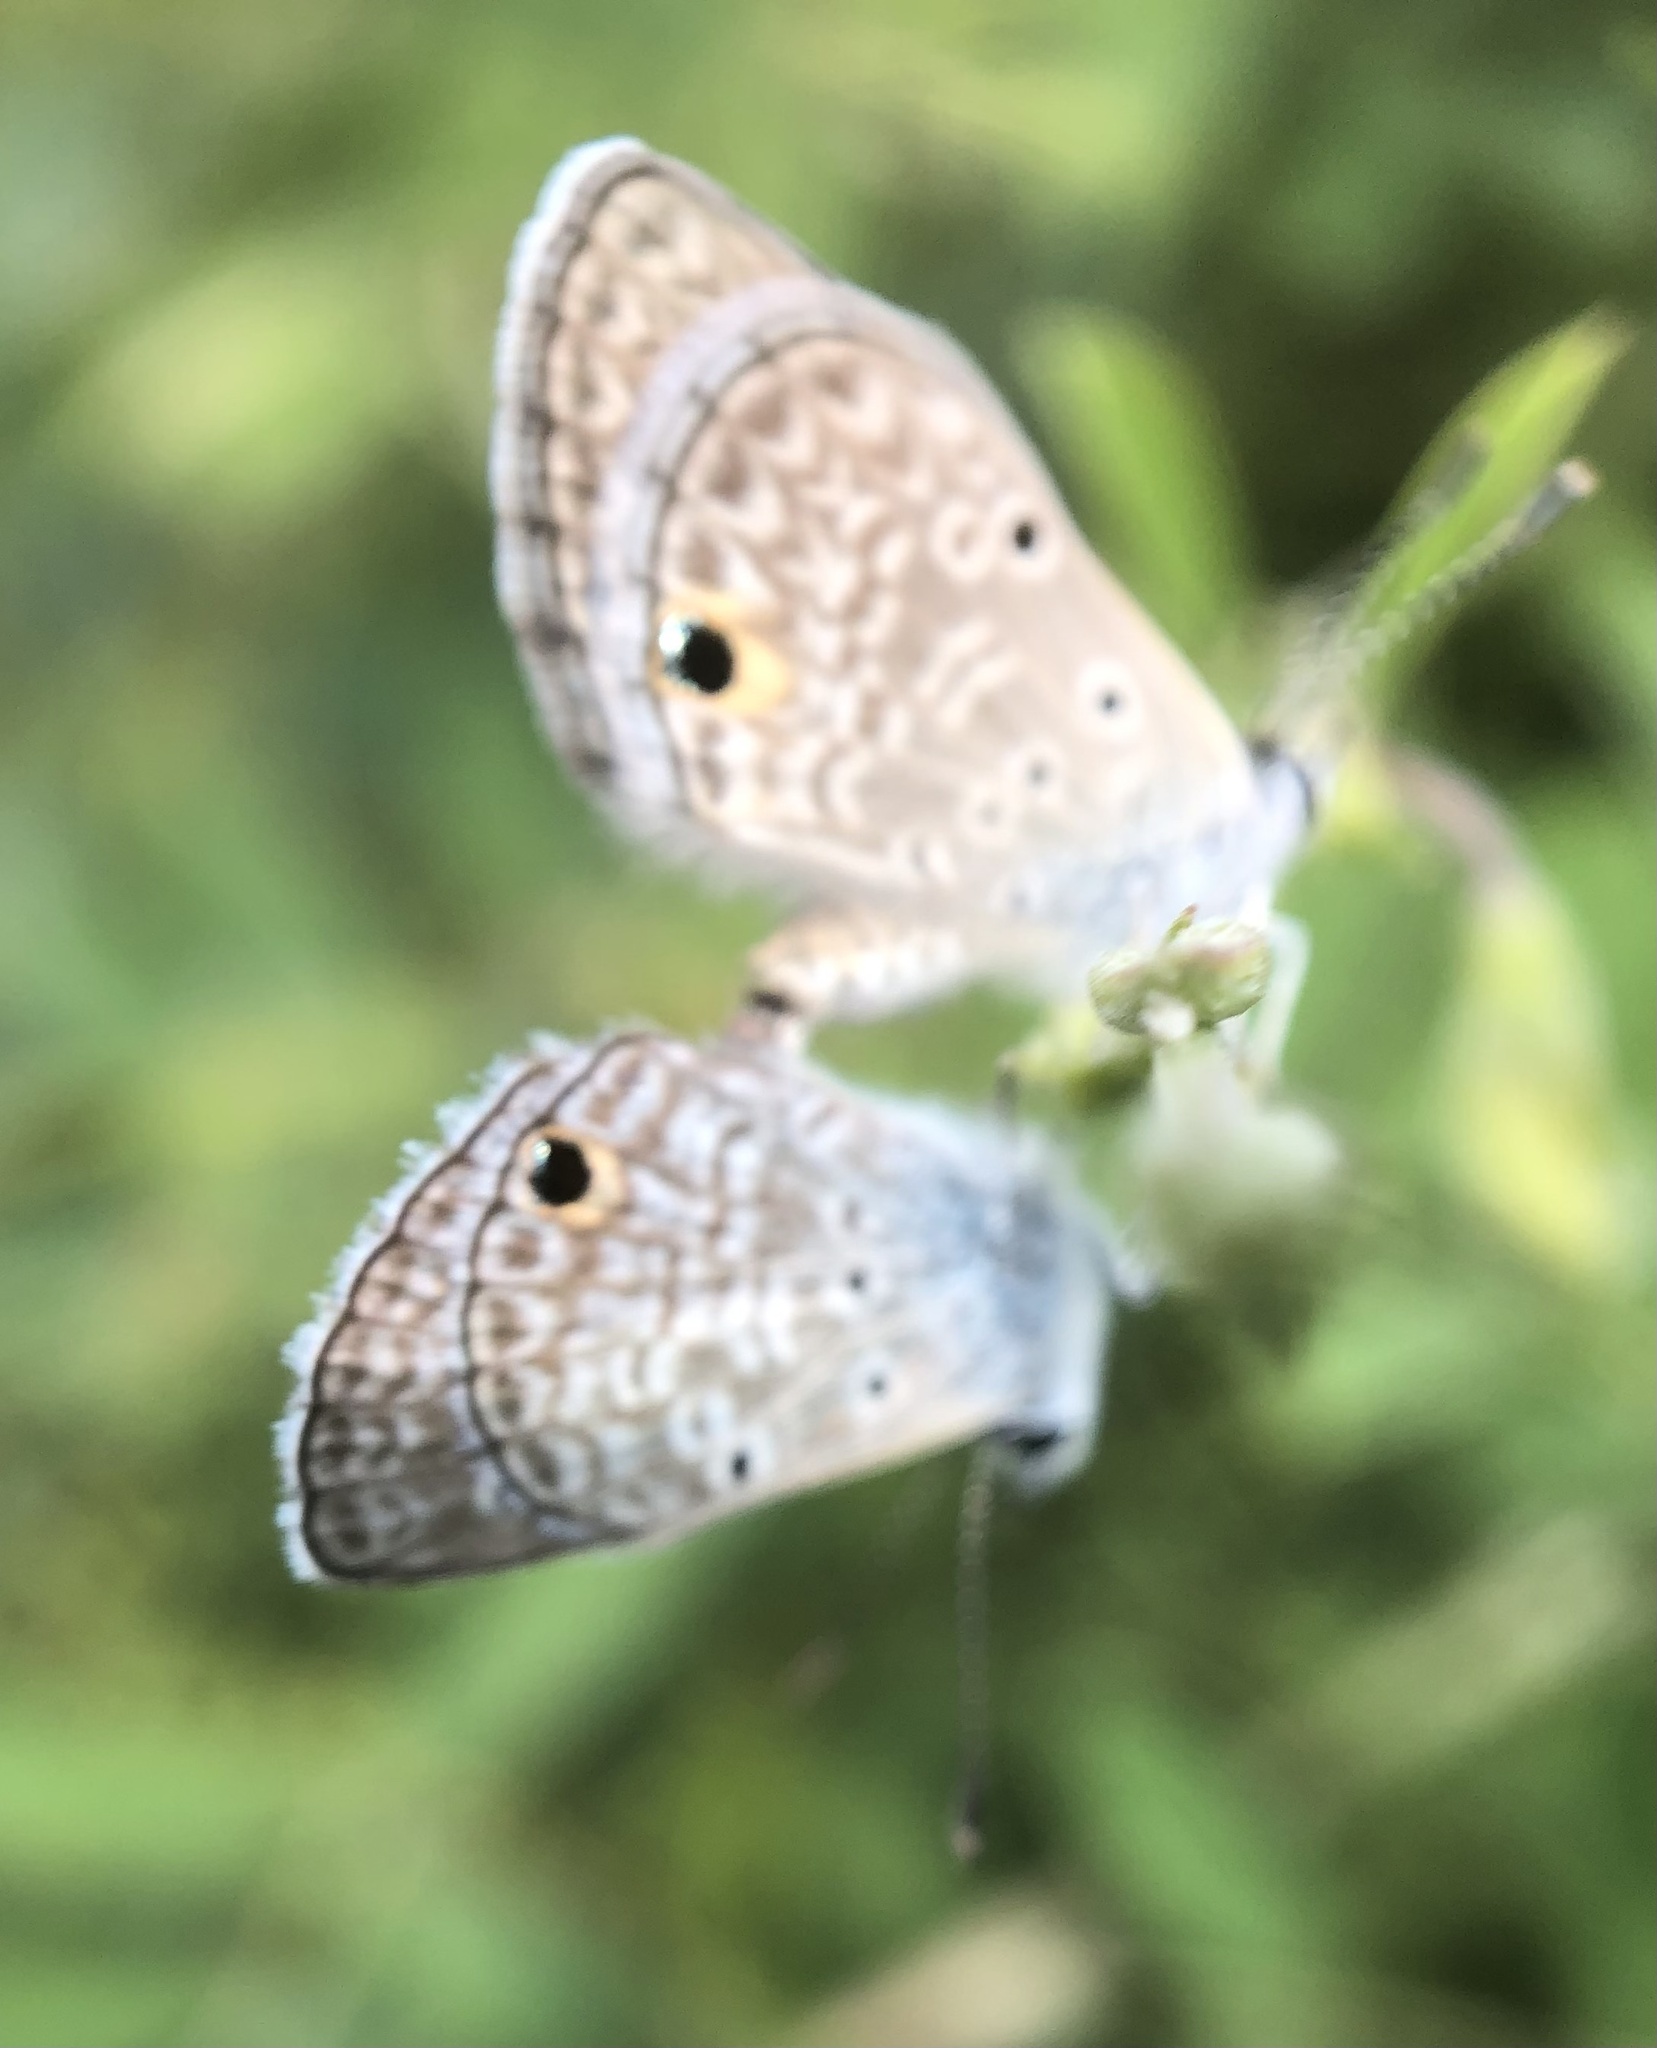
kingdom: Animalia
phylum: Arthropoda
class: Insecta
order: Lepidoptera
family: Lycaenidae
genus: Hemiargus
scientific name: Hemiargus hanno
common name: Common blue
